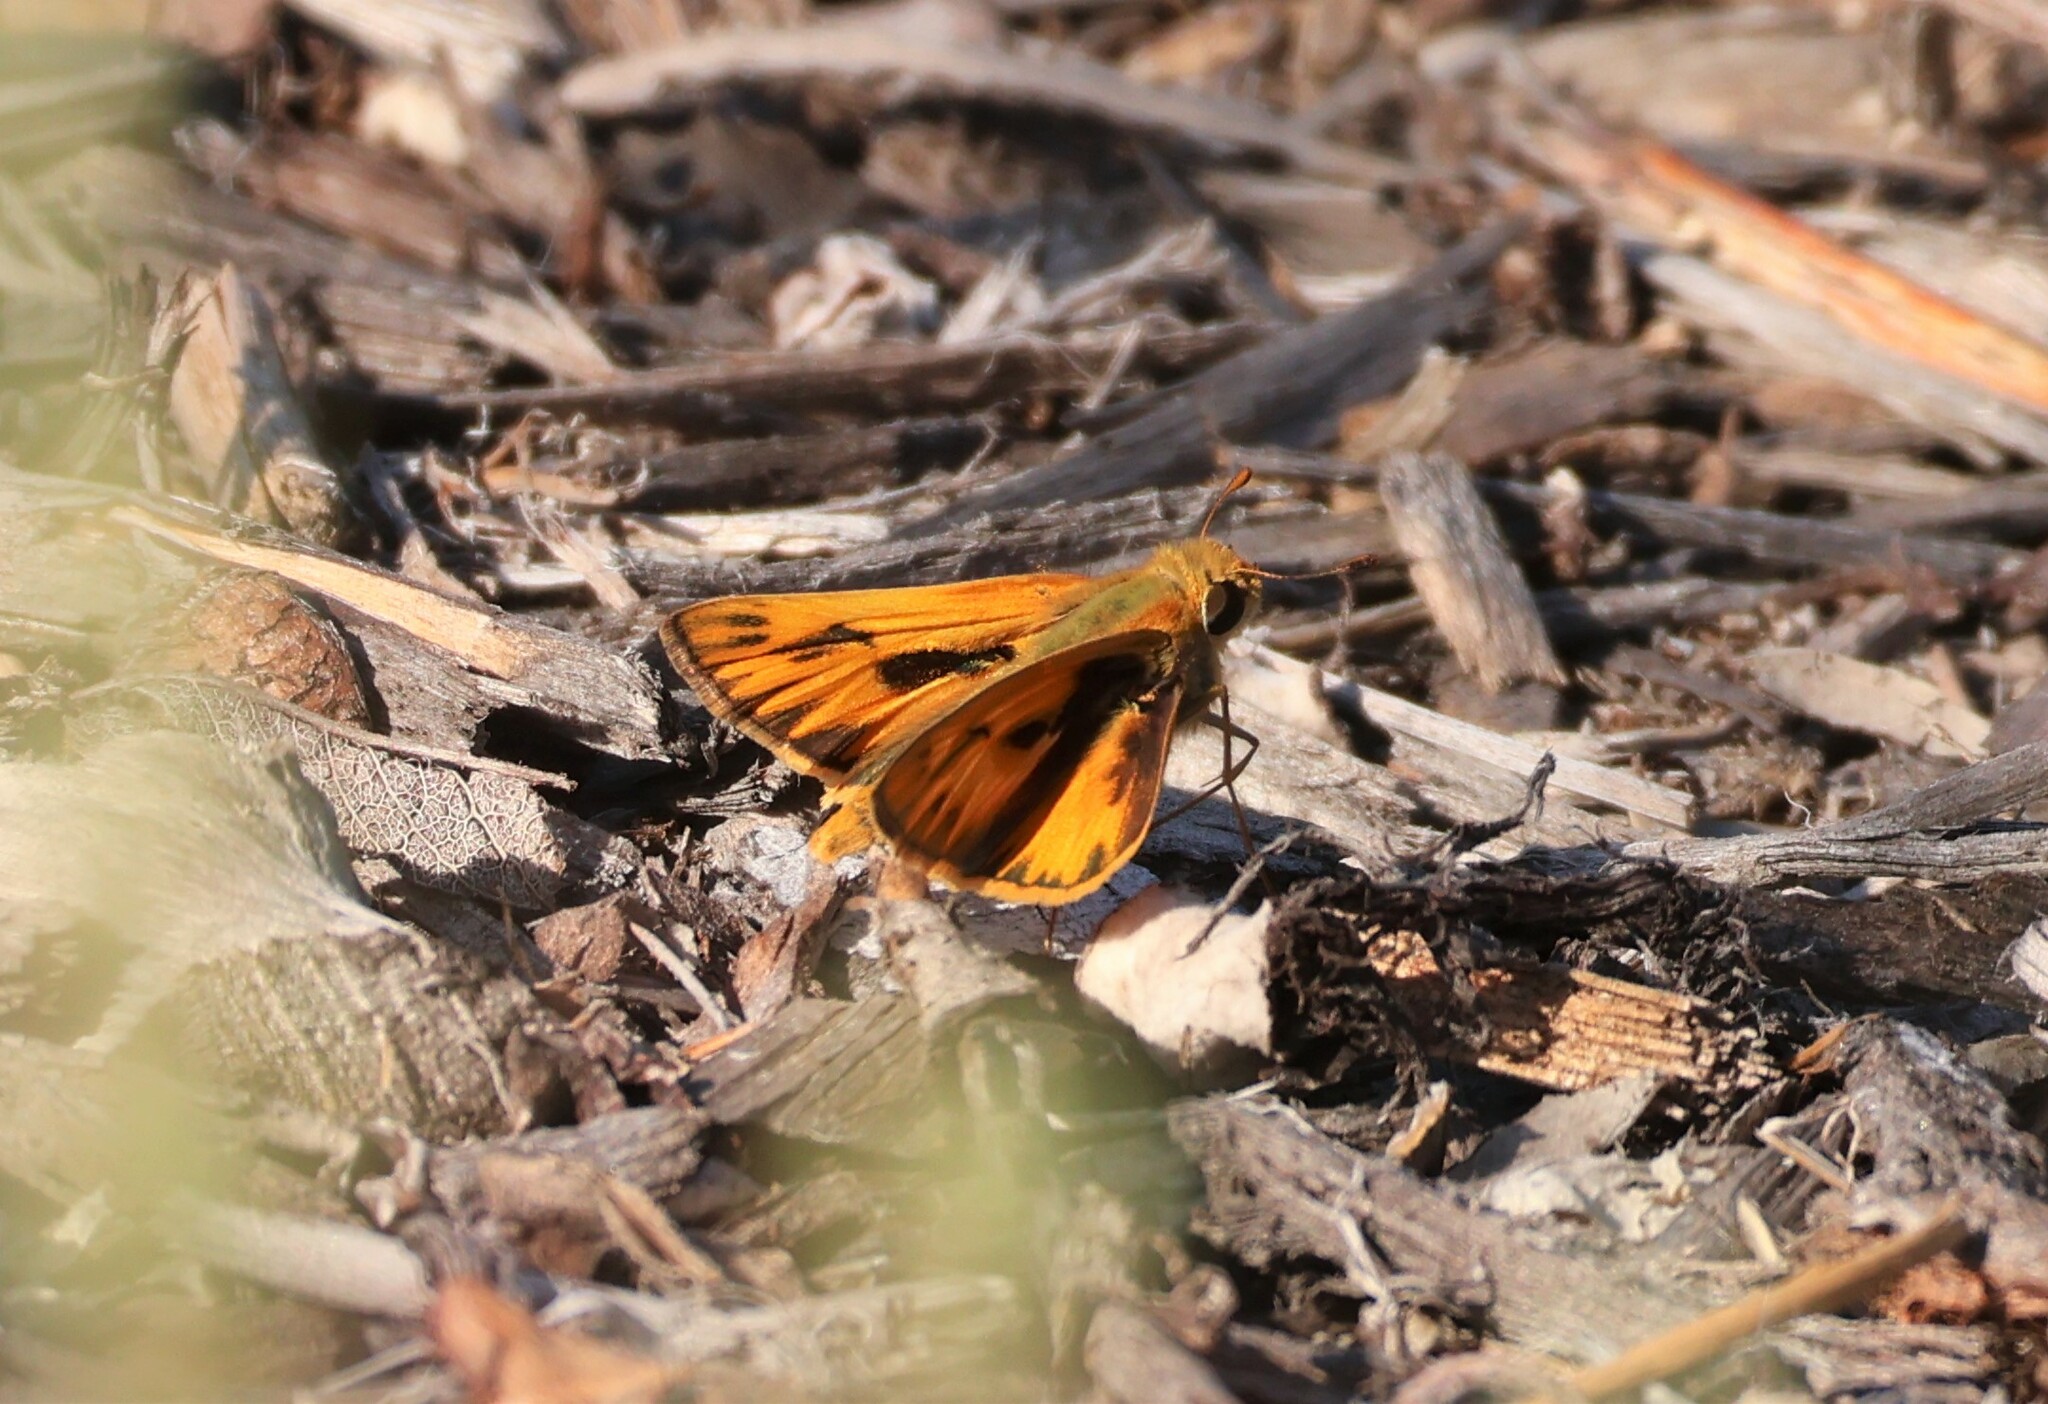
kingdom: Animalia
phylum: Arthropoda
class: Insecta
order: Lepidoptera
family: Hesperiidae
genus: Hylephila
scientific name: Hylephila phyleus
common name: Fiery skipper
